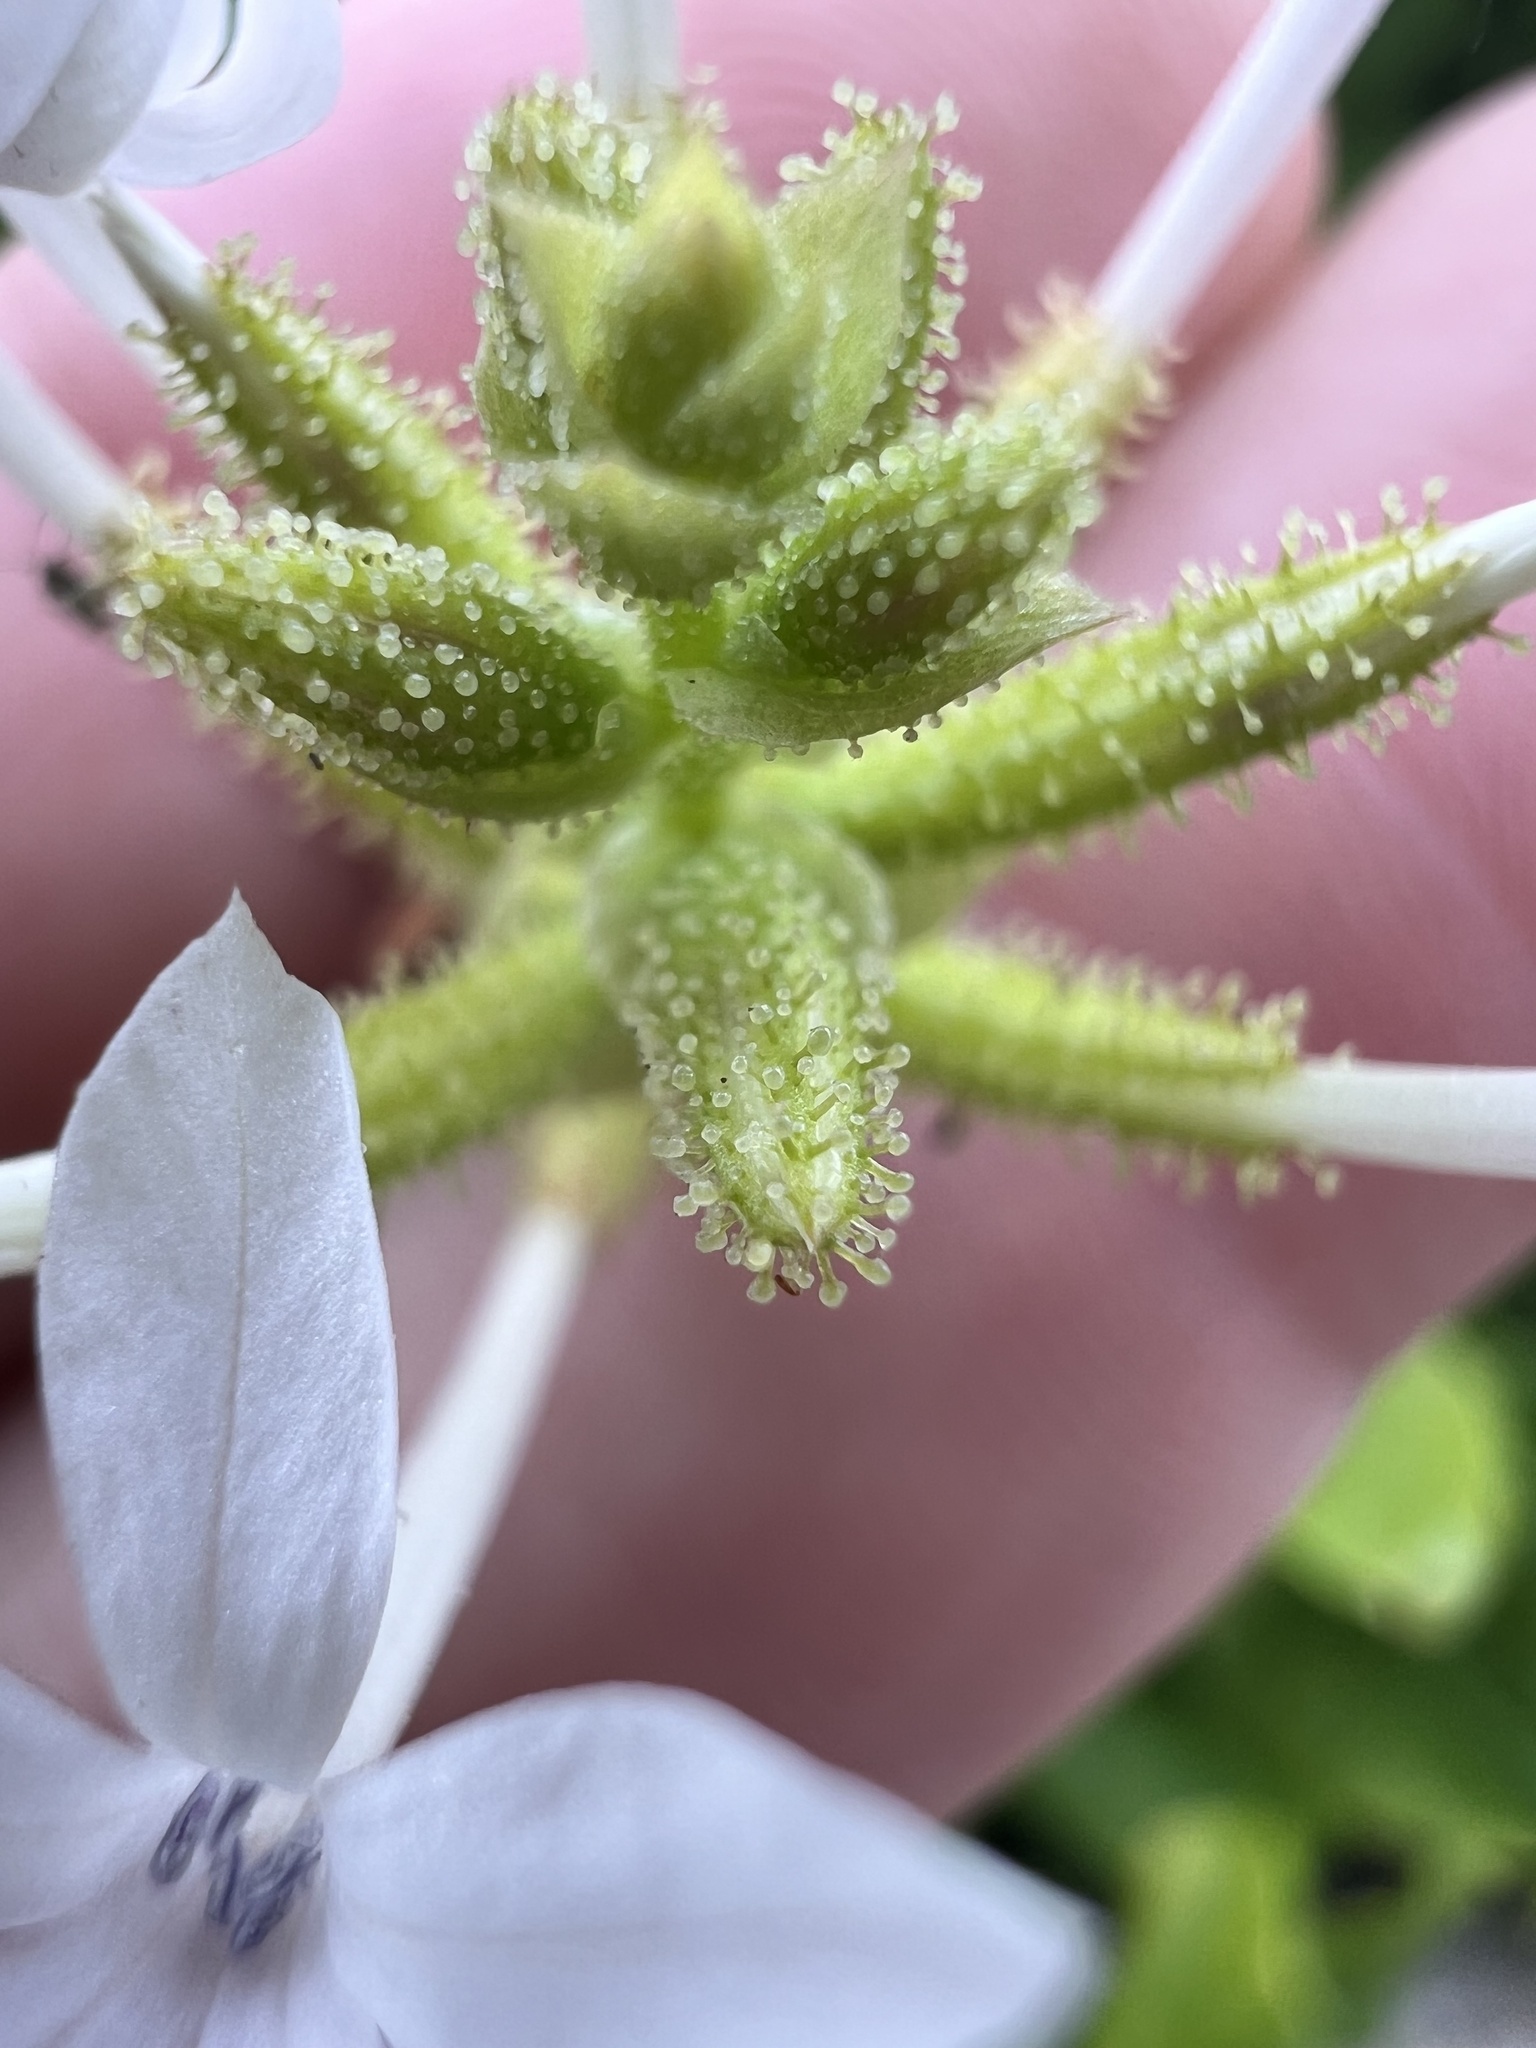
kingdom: Plantae
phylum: Tracheophyta
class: Magnoliopsida
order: Caryophyllales
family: Plumbaginaceae
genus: Plumbago
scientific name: Plumbago zeylanica
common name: Doctorbush
